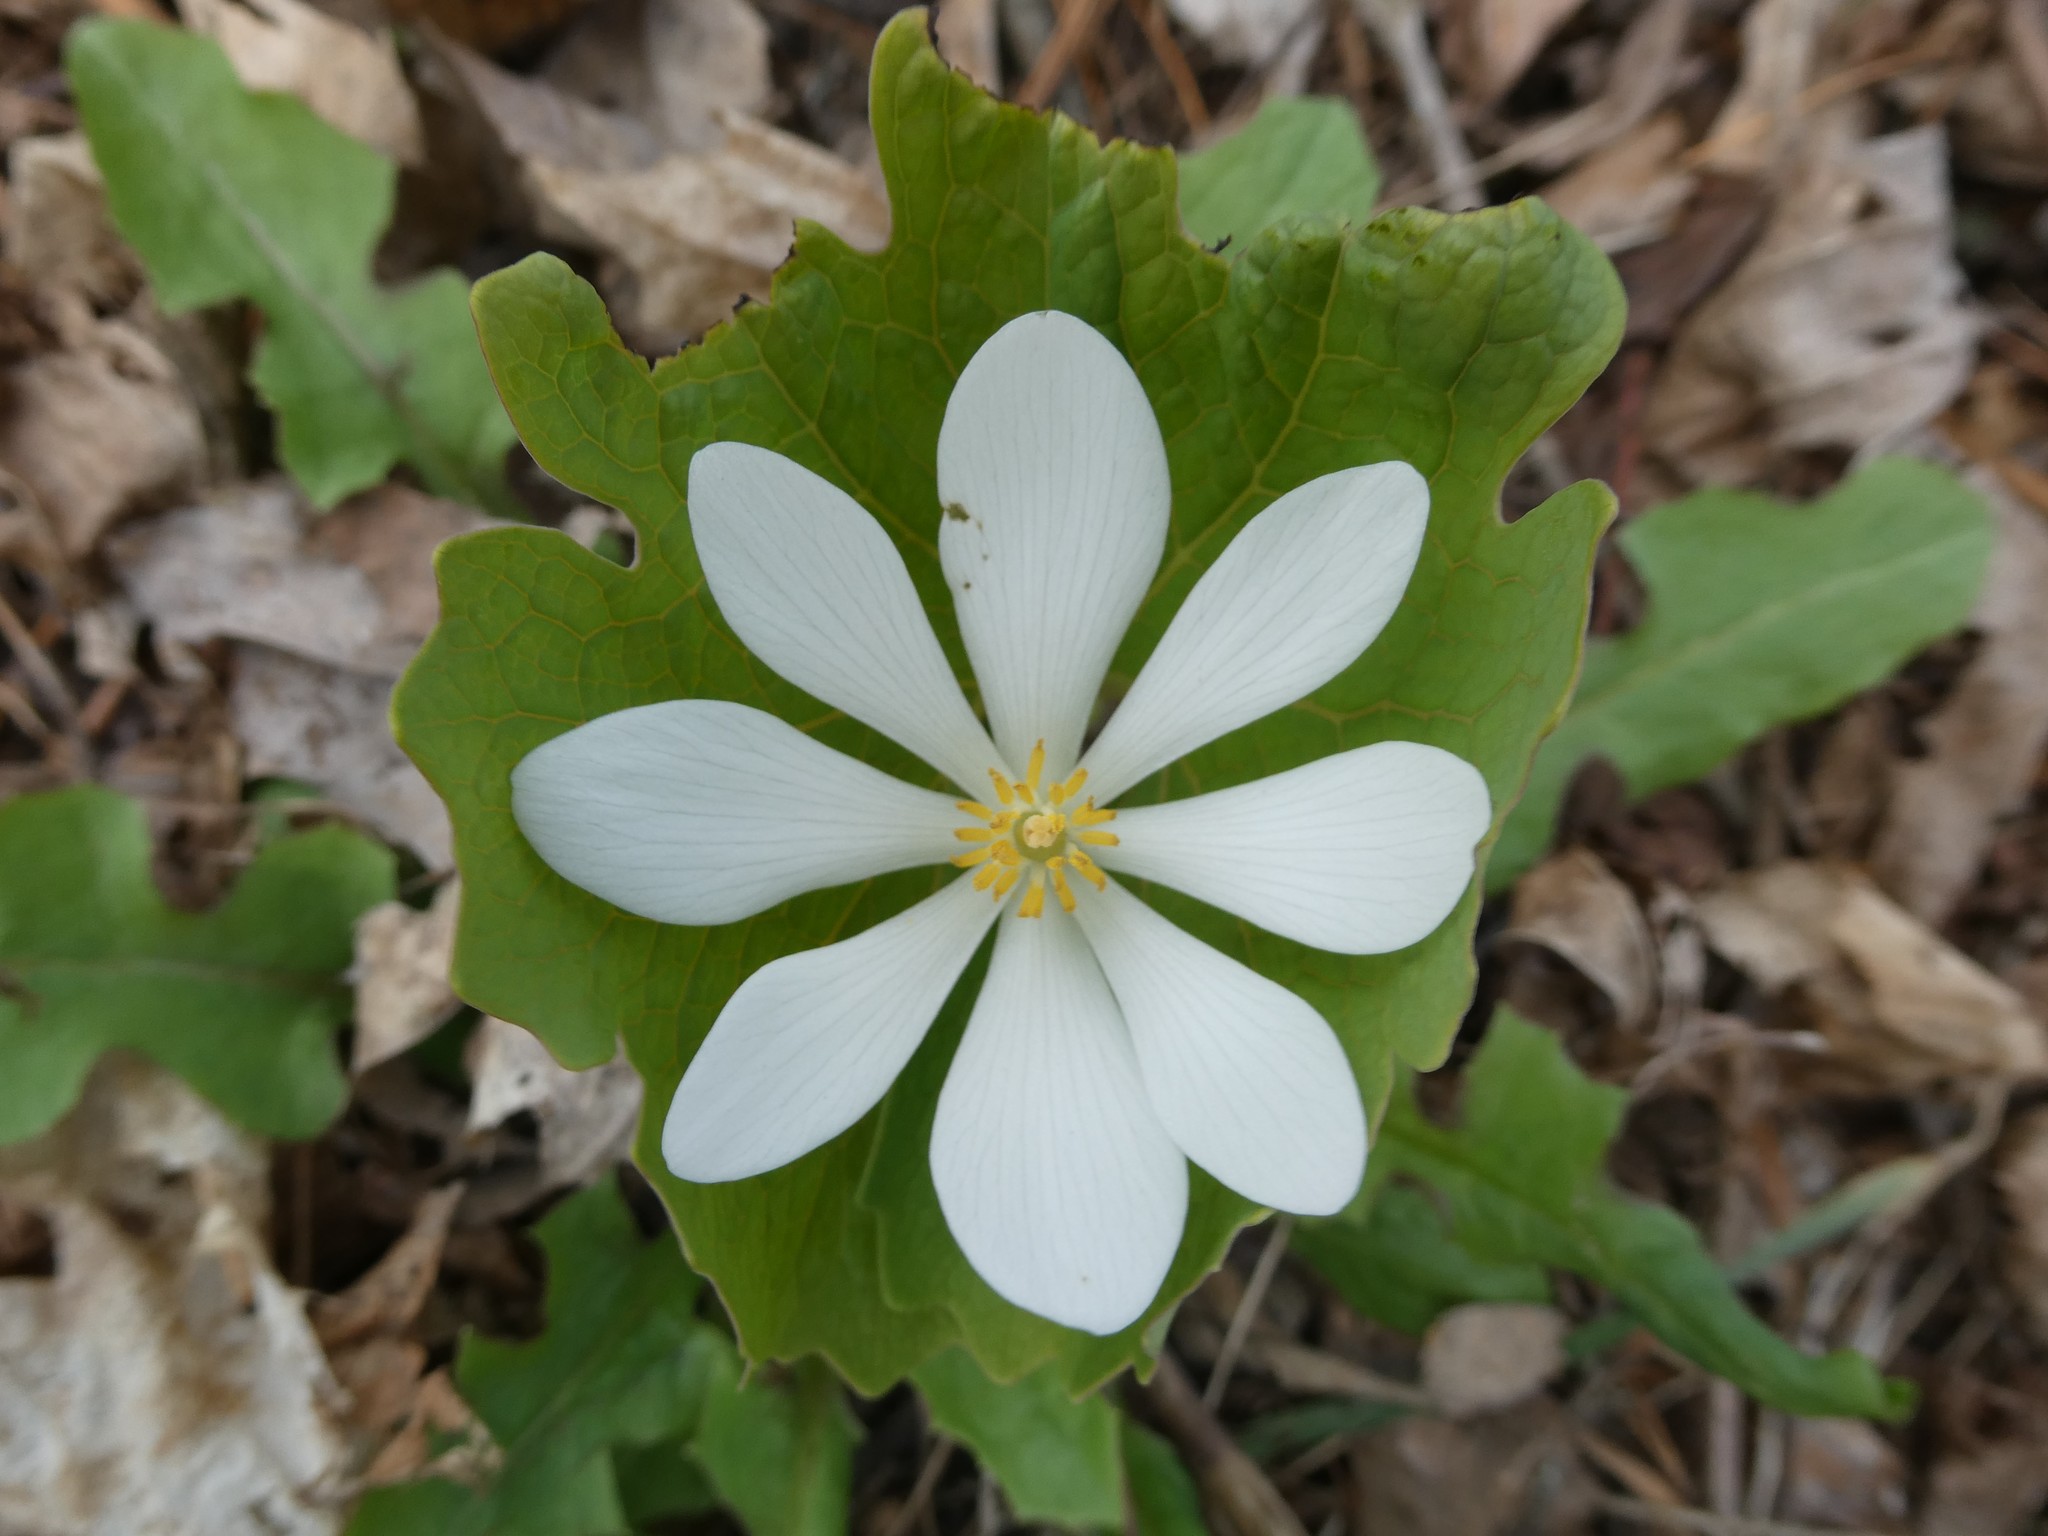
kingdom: Plantae
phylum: Tracheophyta
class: Magnoliopsida
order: Ranunculales
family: Papaveraceae
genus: Sanguinaria
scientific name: Sanguinaria canadensis
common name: Bloodroot
